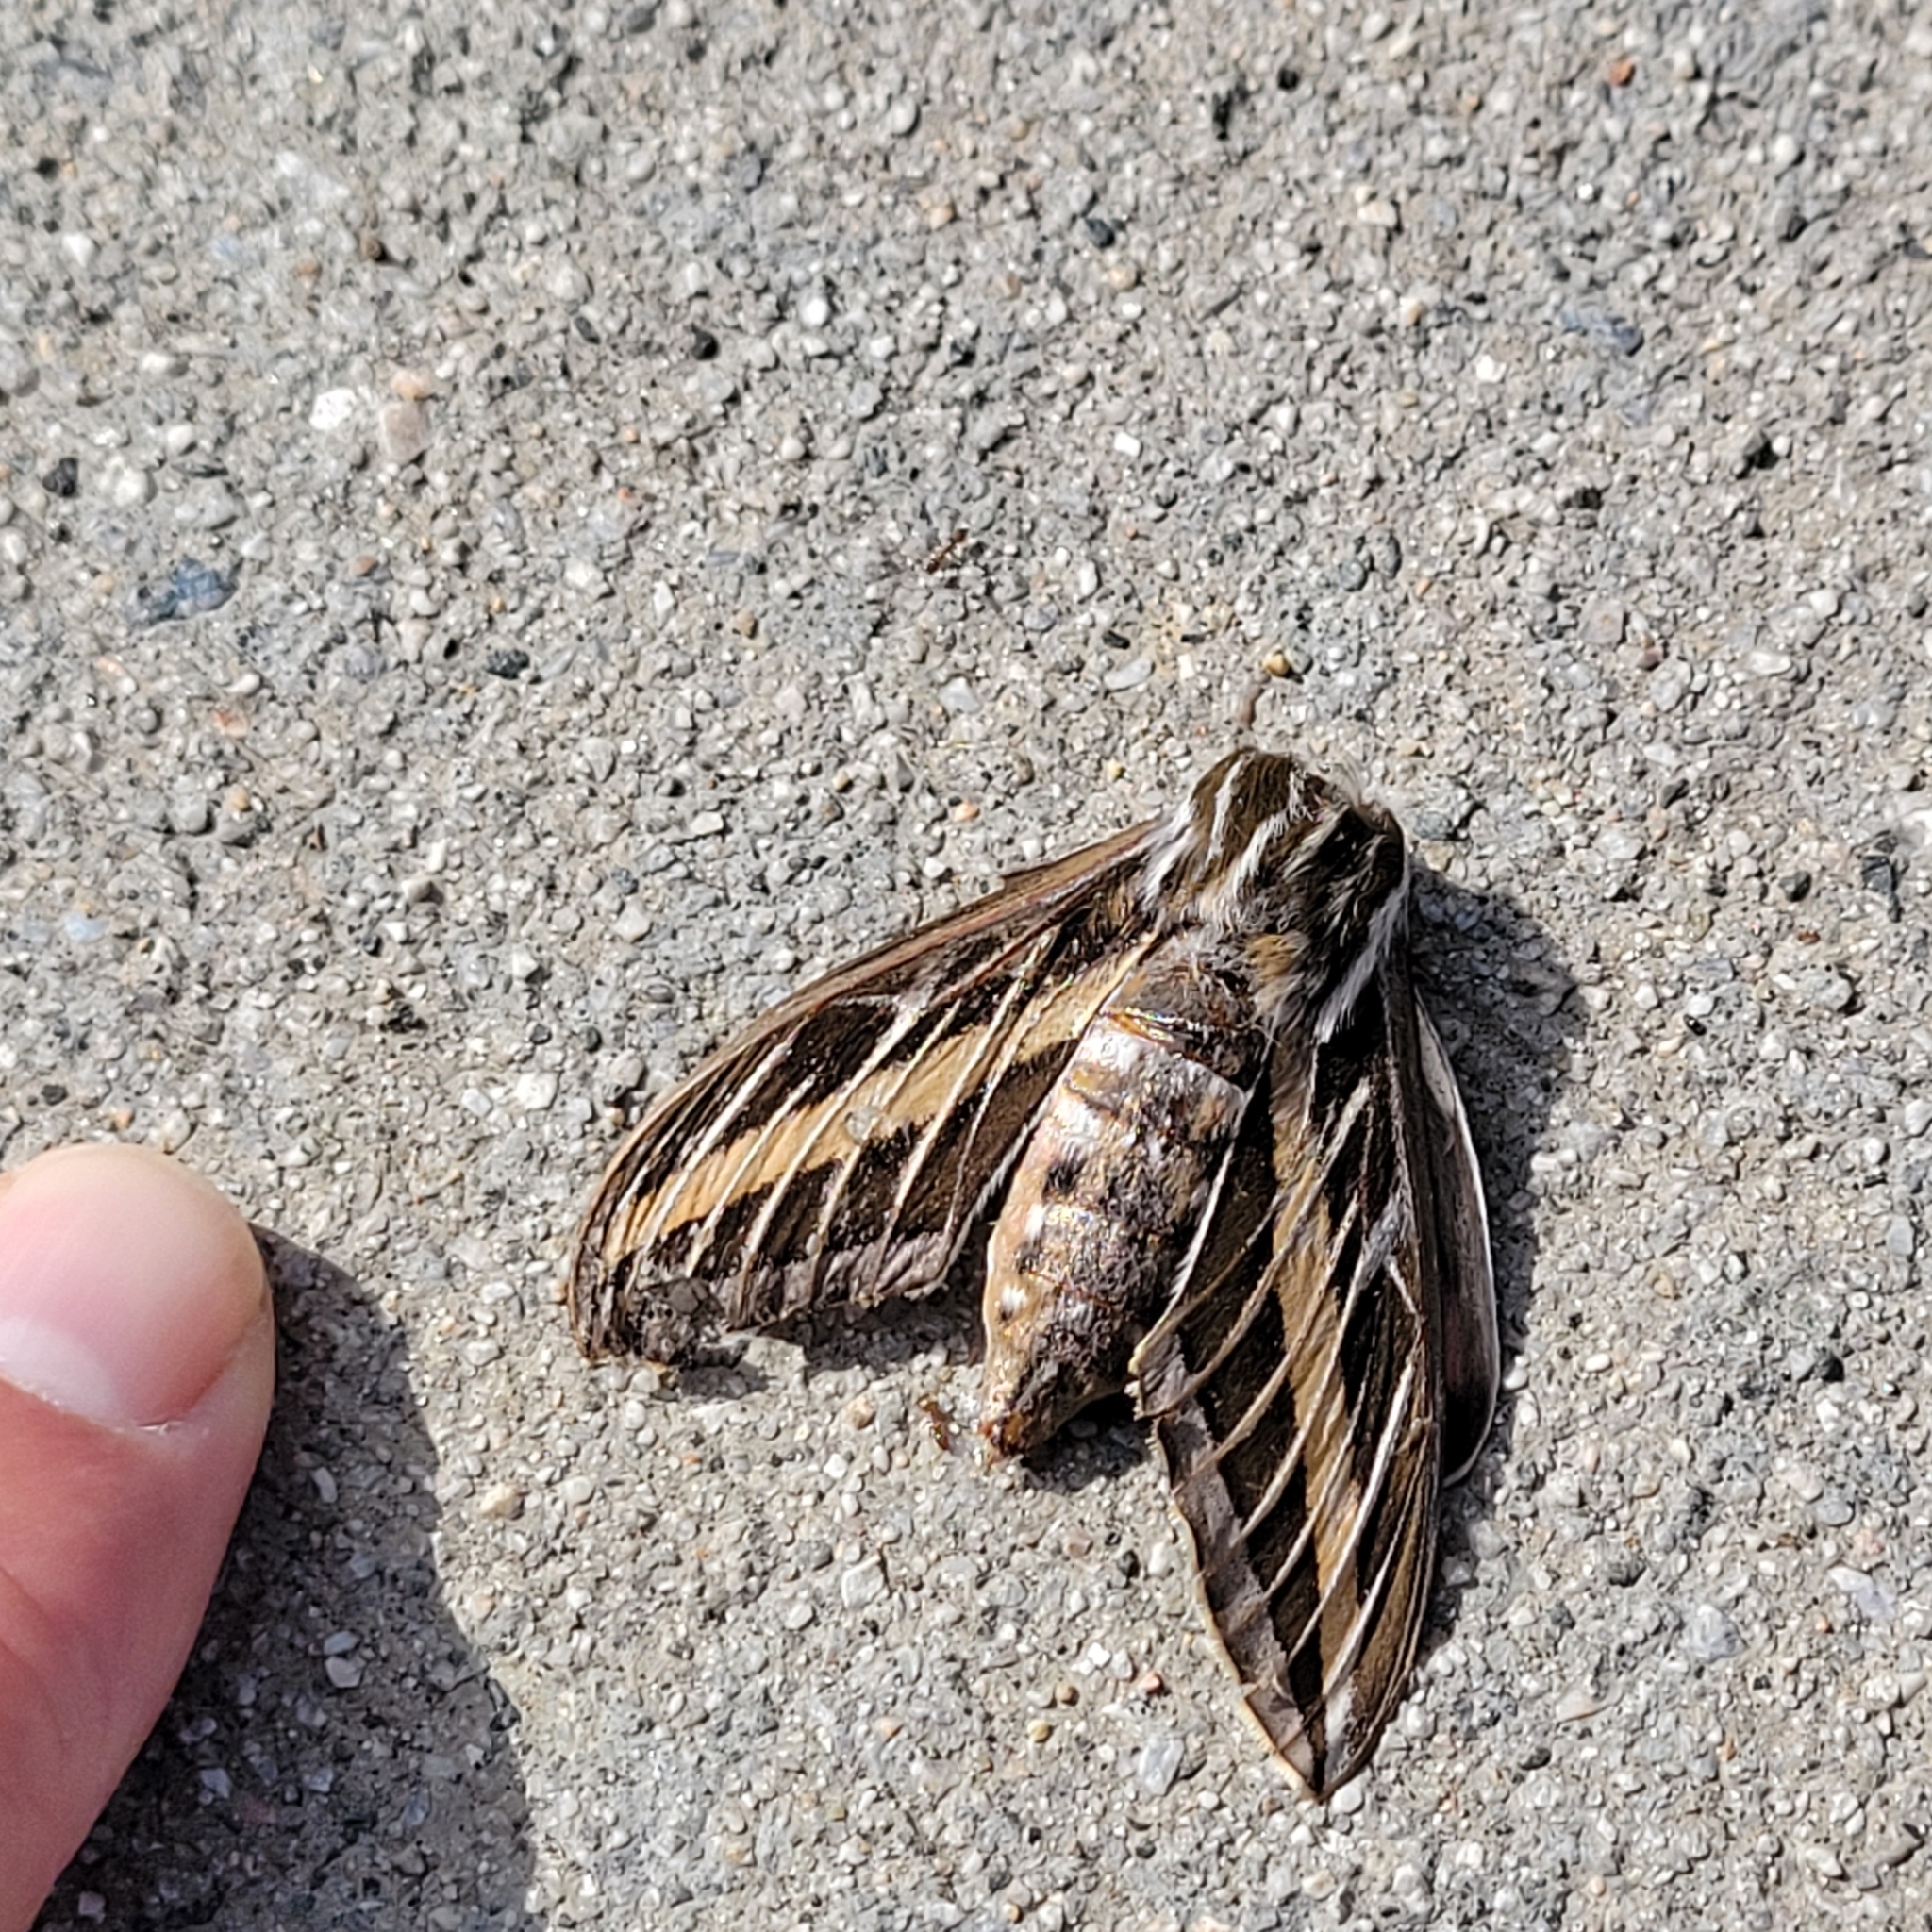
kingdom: Animalia
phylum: Arthropoda
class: Insecta
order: Lepidoptera
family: Sphingidae
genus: Hyles
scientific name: Hyles lineata
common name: White-lined sphinx
